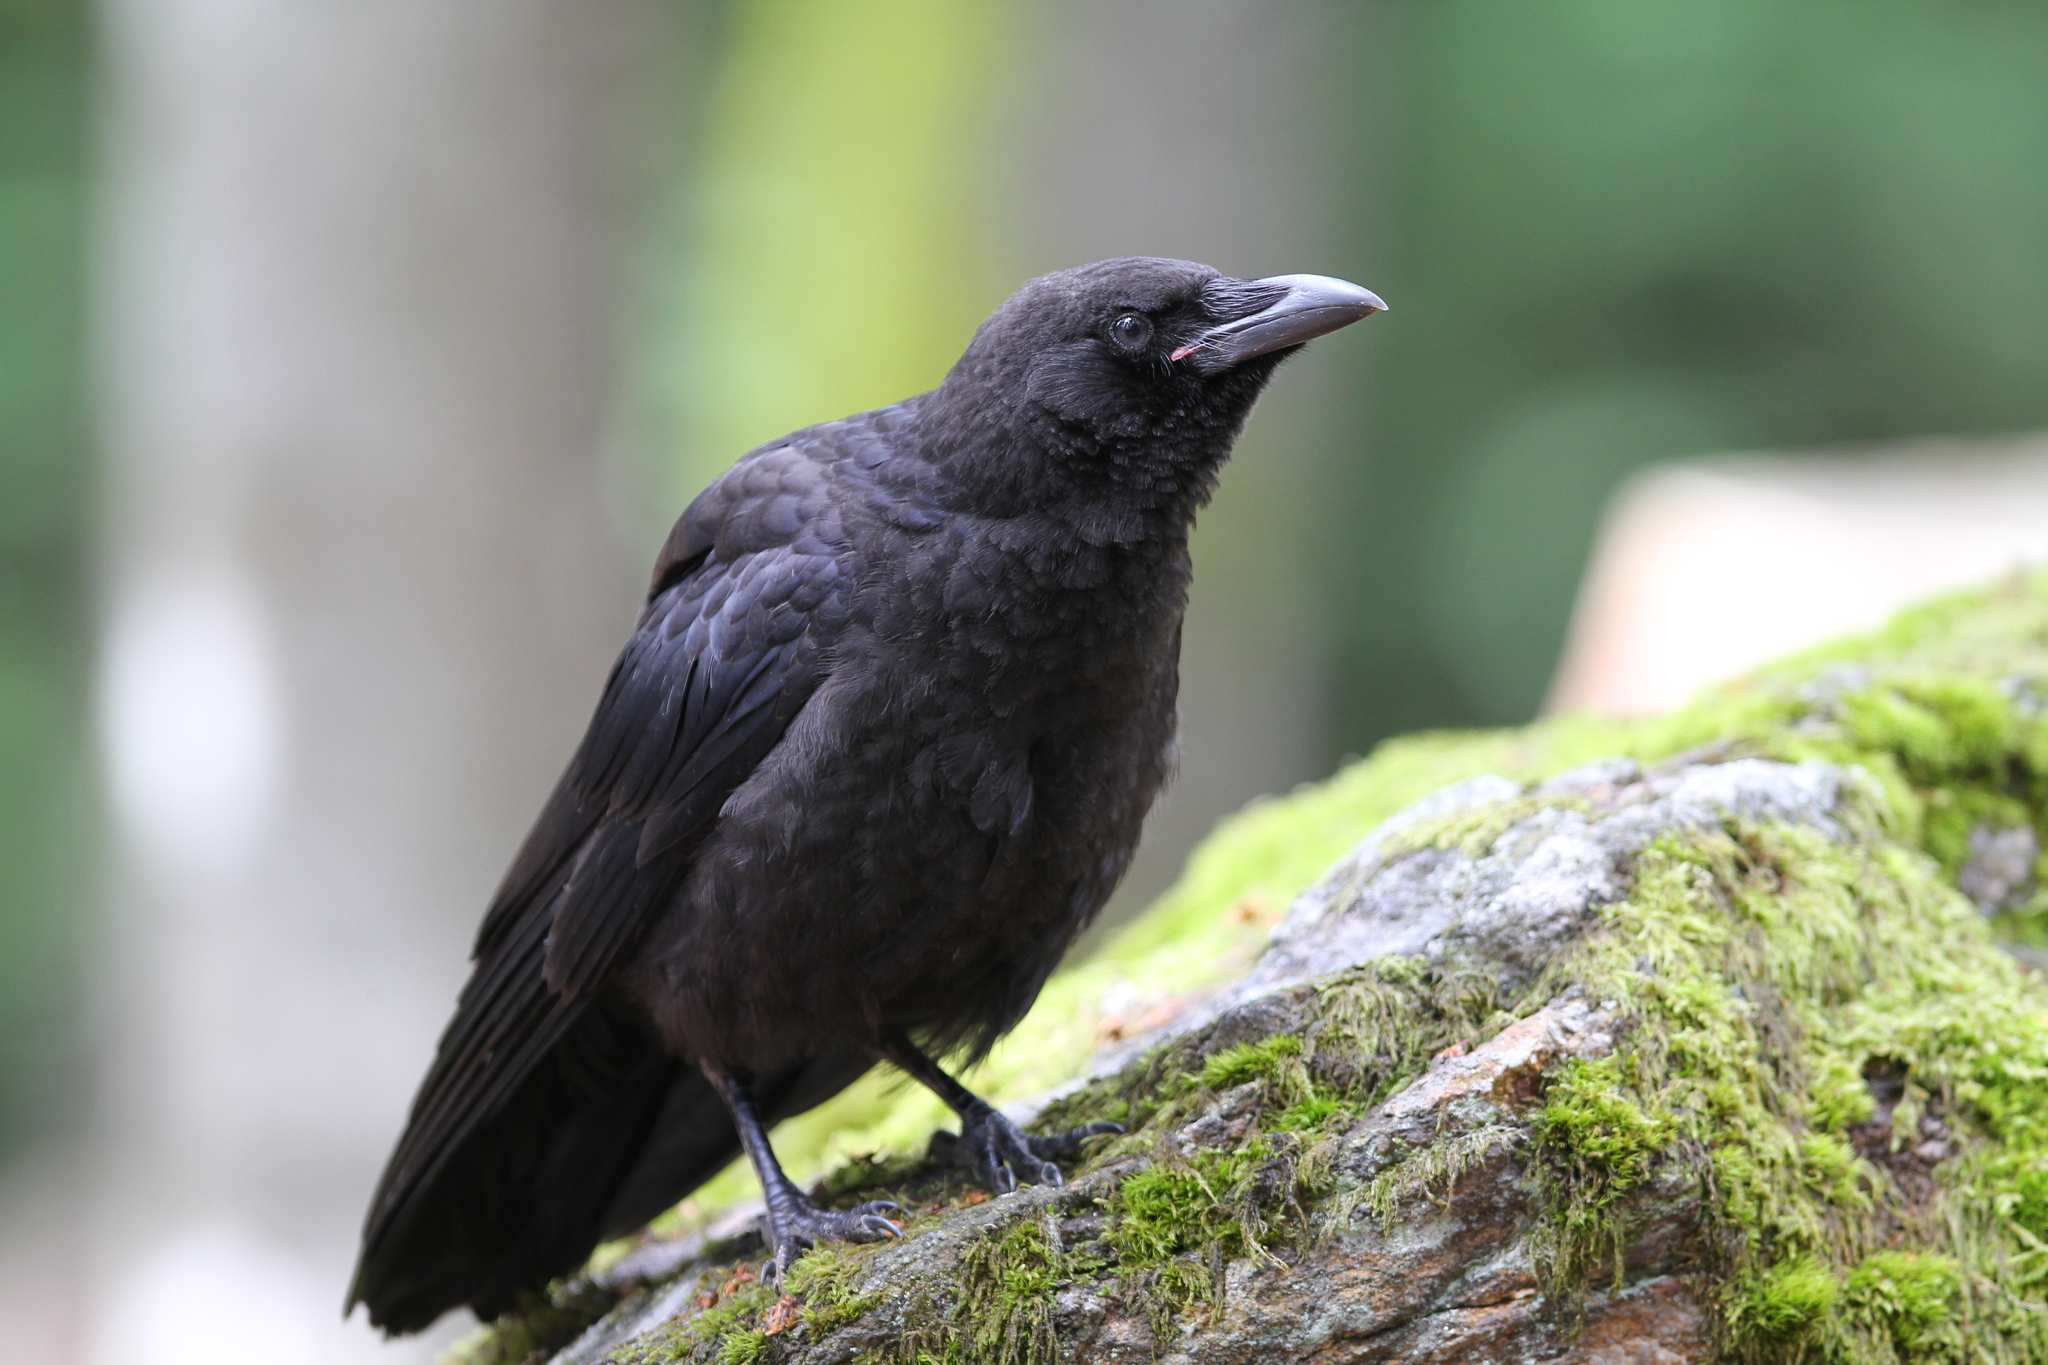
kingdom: Animalia
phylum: Chordata
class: Aves
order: Passeriformes
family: Corvidae
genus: Corvus
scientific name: Corvus corone
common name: Carrion crow
